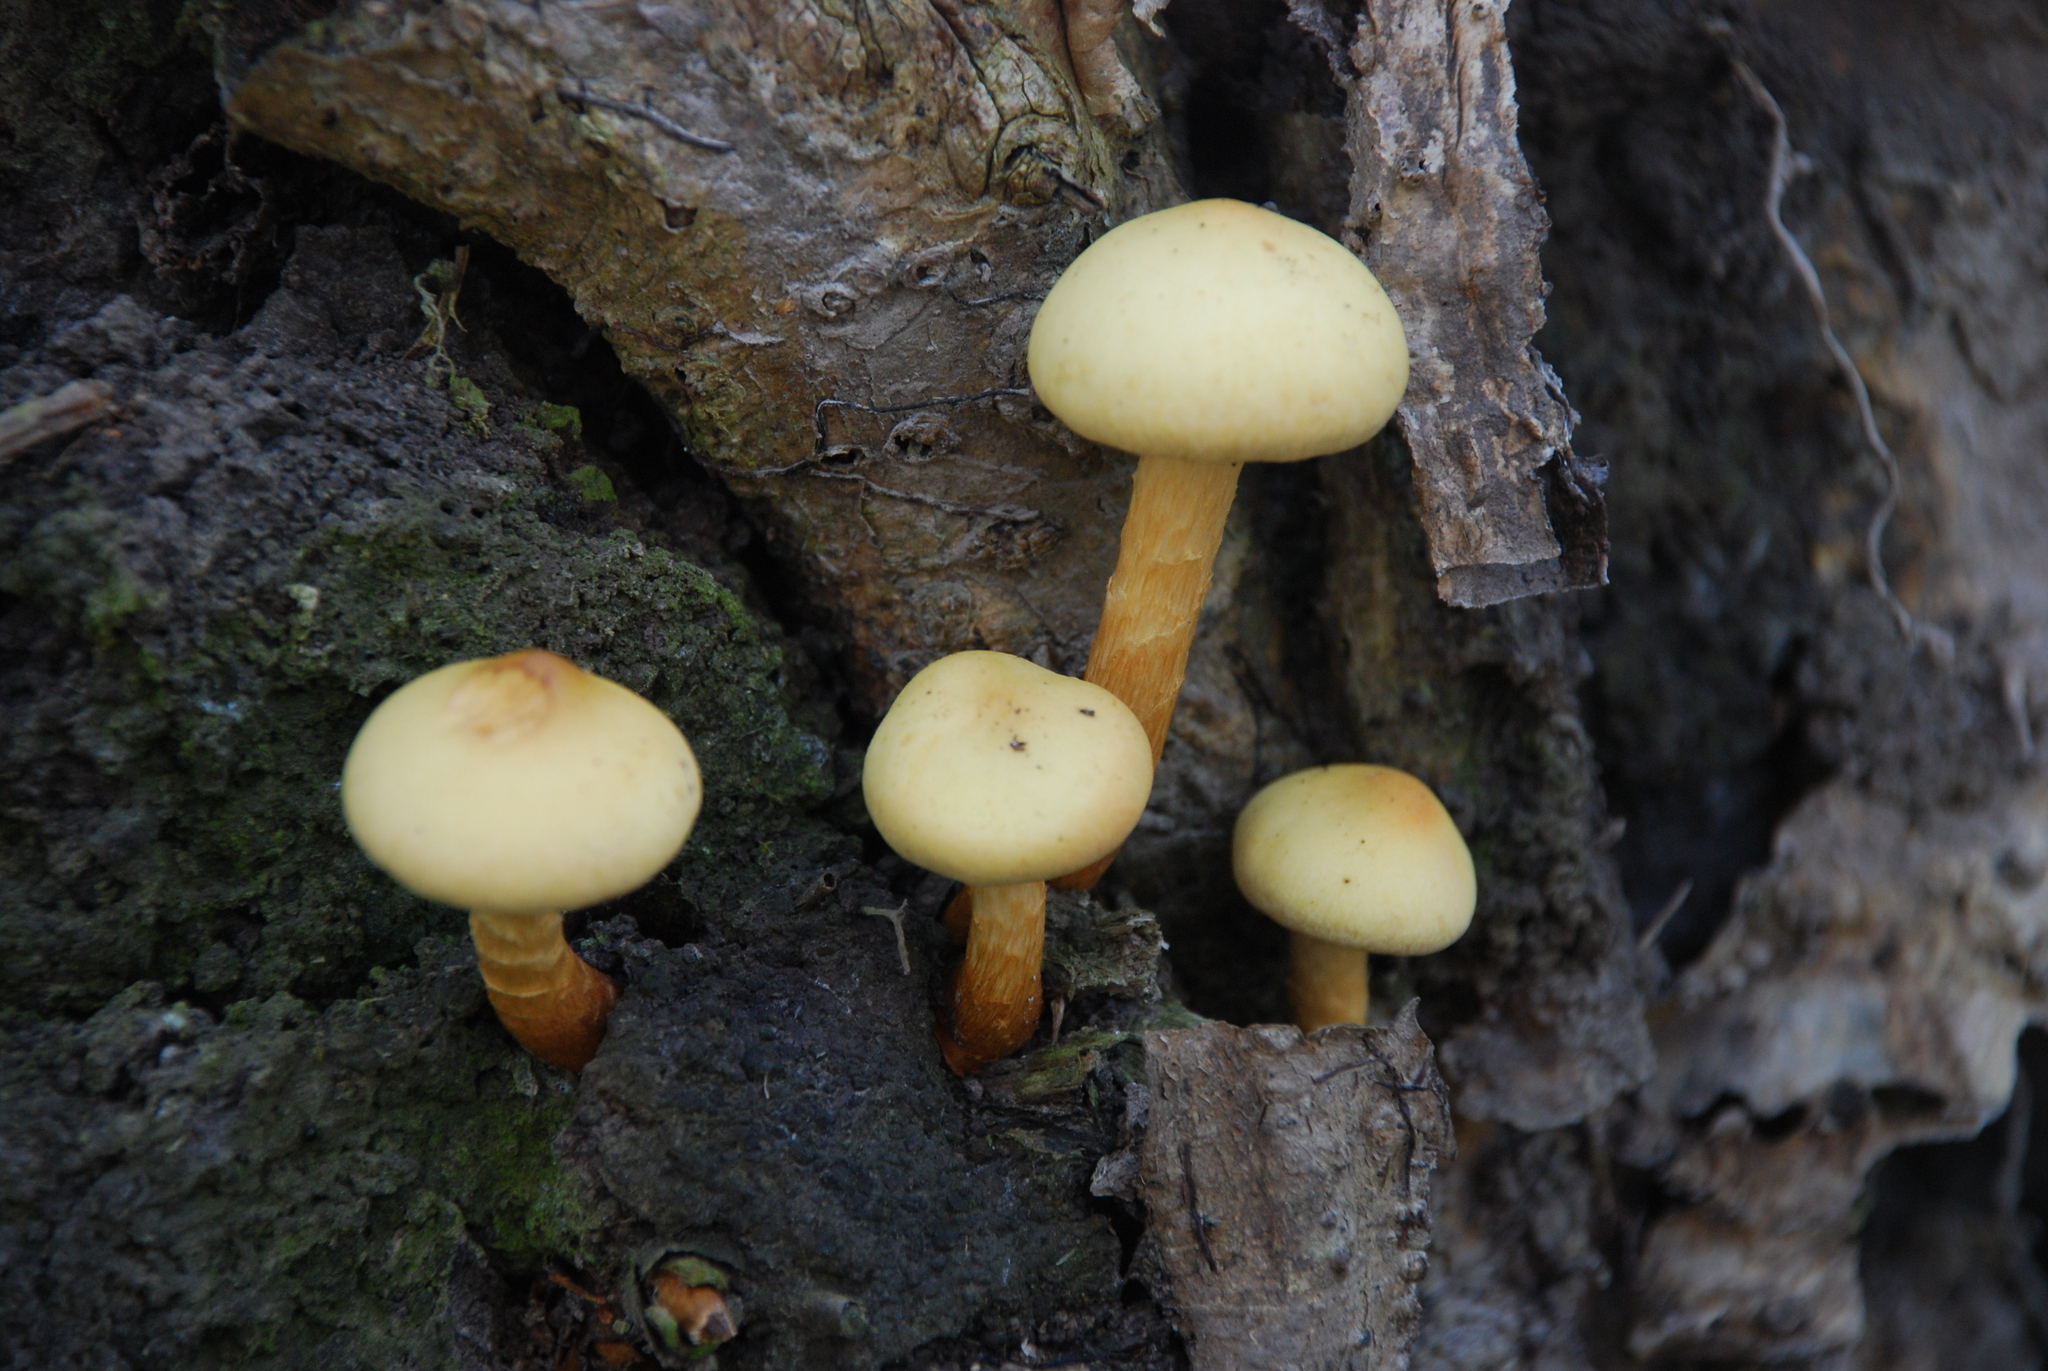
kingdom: Fungi
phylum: Basidiomycota
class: Agaricomycetes
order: Agaricales
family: Hymenogastraceae
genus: Flammula
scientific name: Flammula alnicola
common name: Alder scalycap
